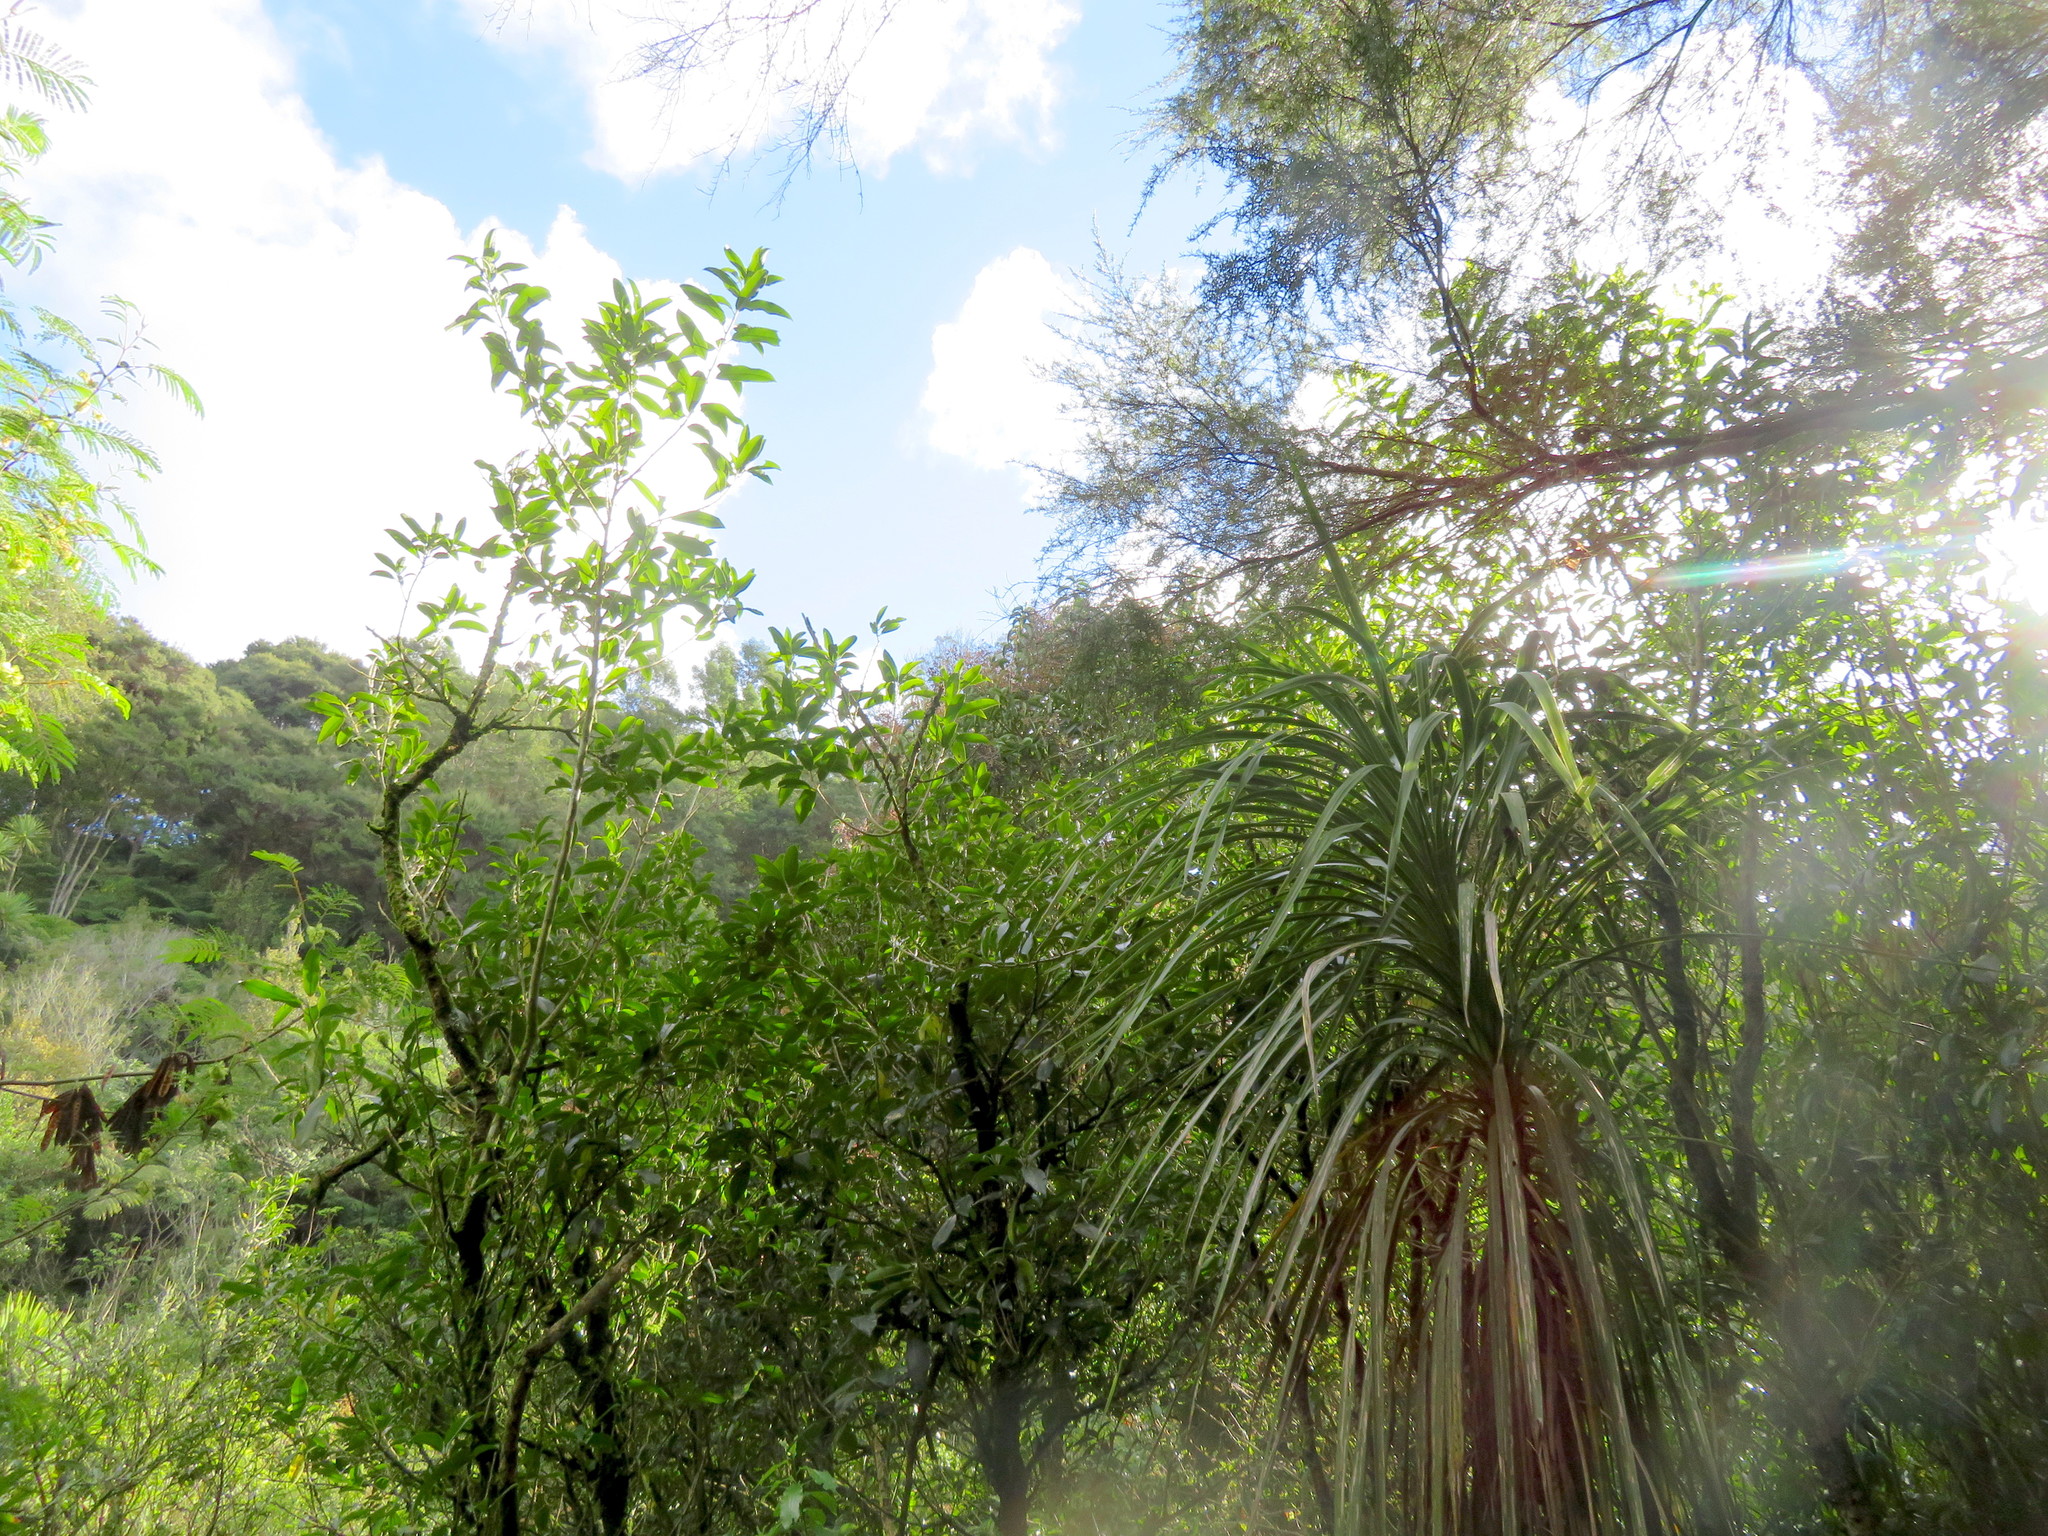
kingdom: Plantae
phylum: Tracheophyta
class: Magnoliopsida
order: Malpighiales
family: Violaceae
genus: Melicytus
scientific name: Melicytus ramiflorus
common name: Mahoe
